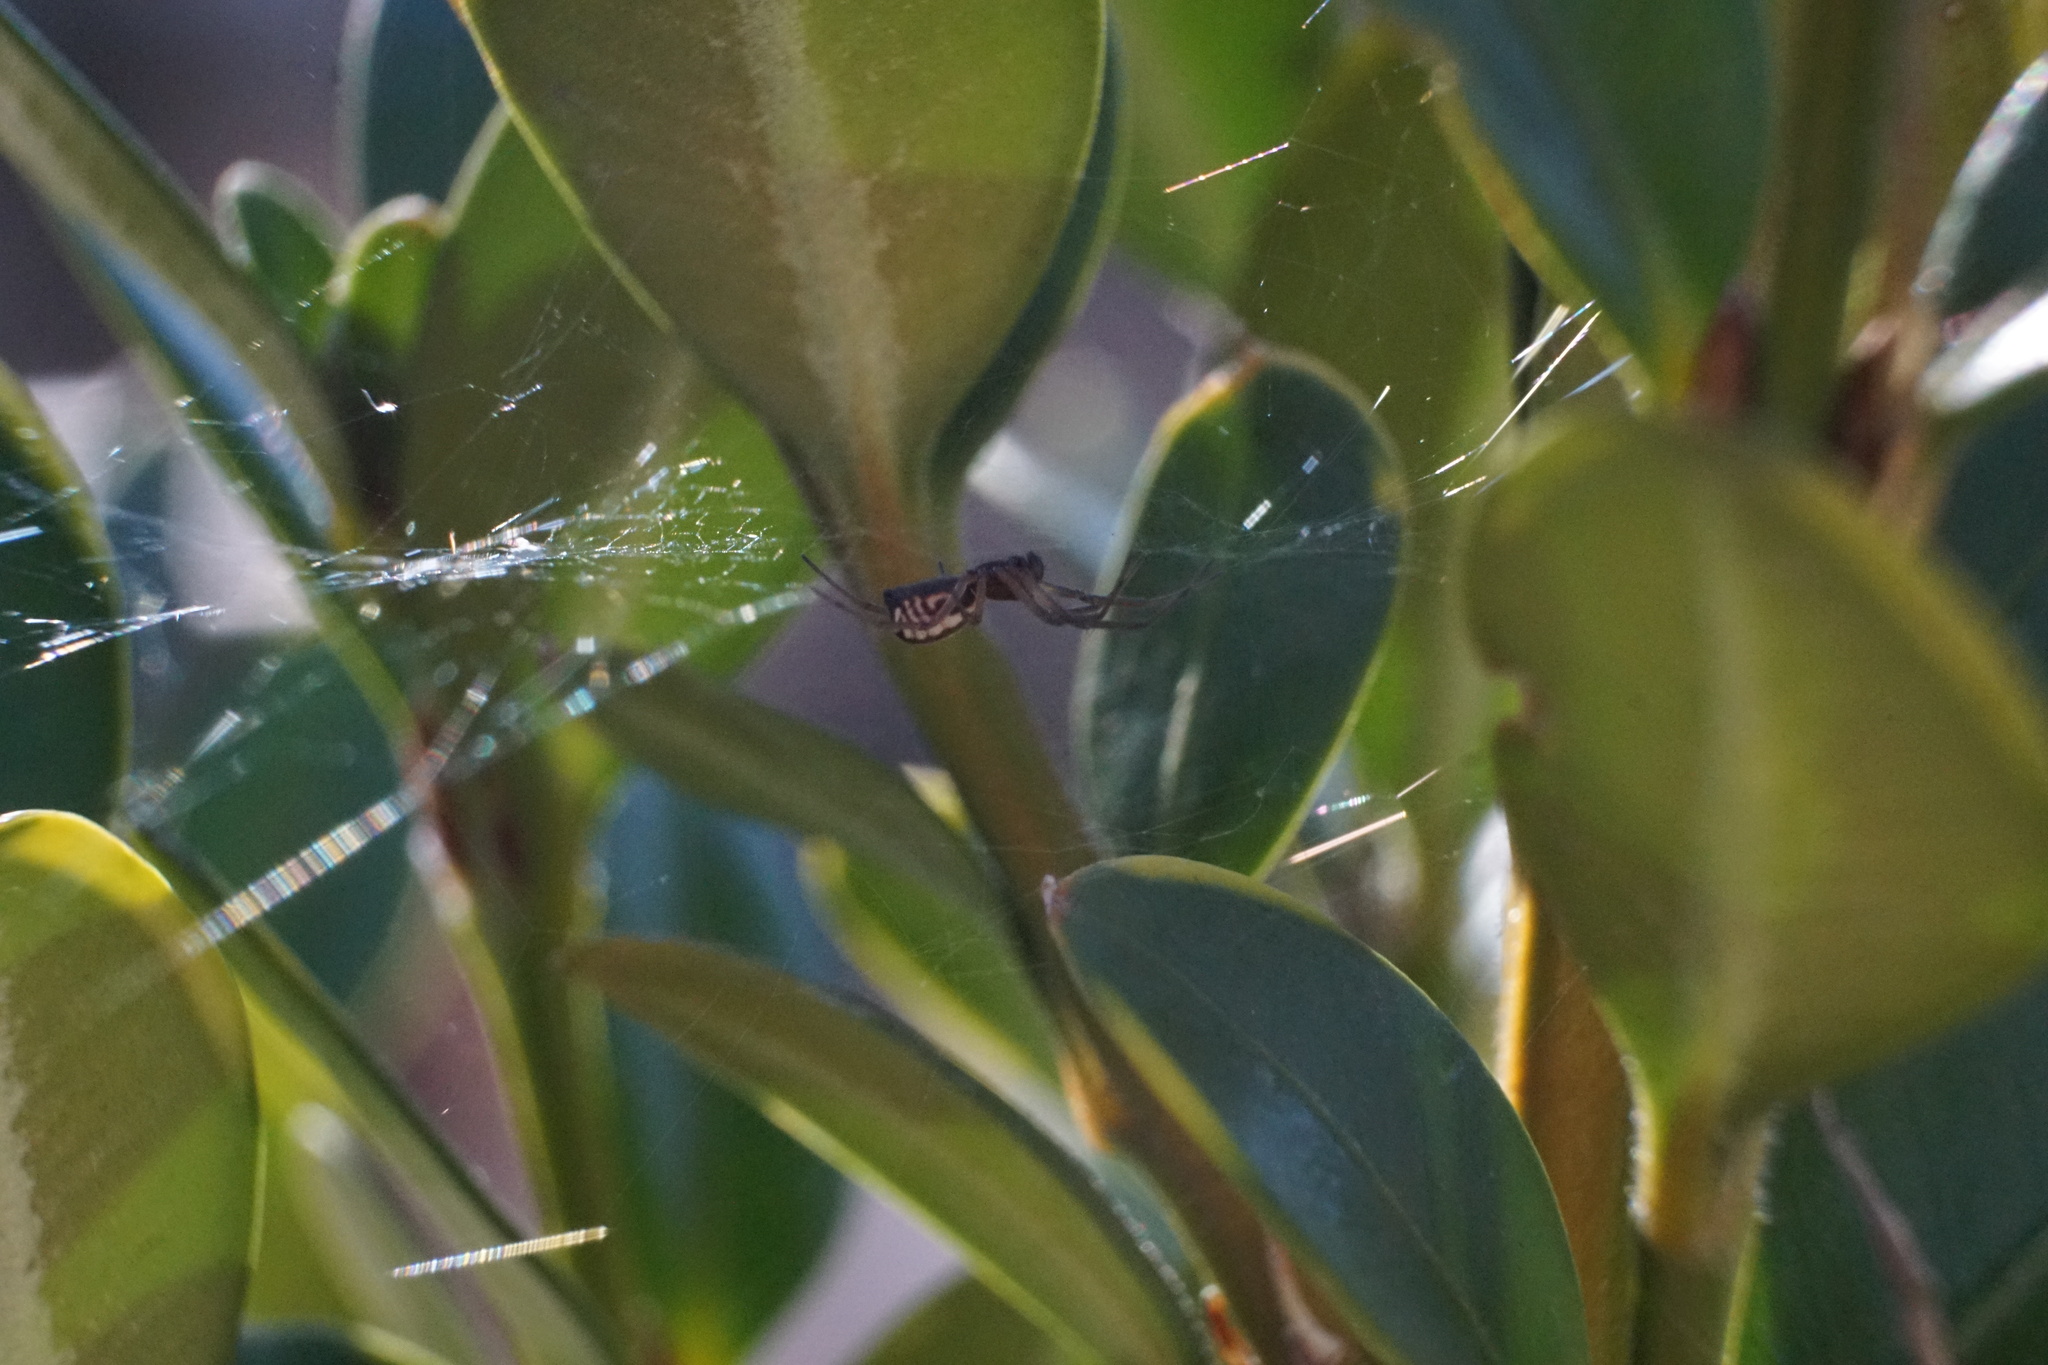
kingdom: Animalia
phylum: Arthropoda
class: Arachnida
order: Araneae
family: Linyphiidae
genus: Frontinella
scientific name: Frontinella pyramitela
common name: Bowl-and-doily spider
